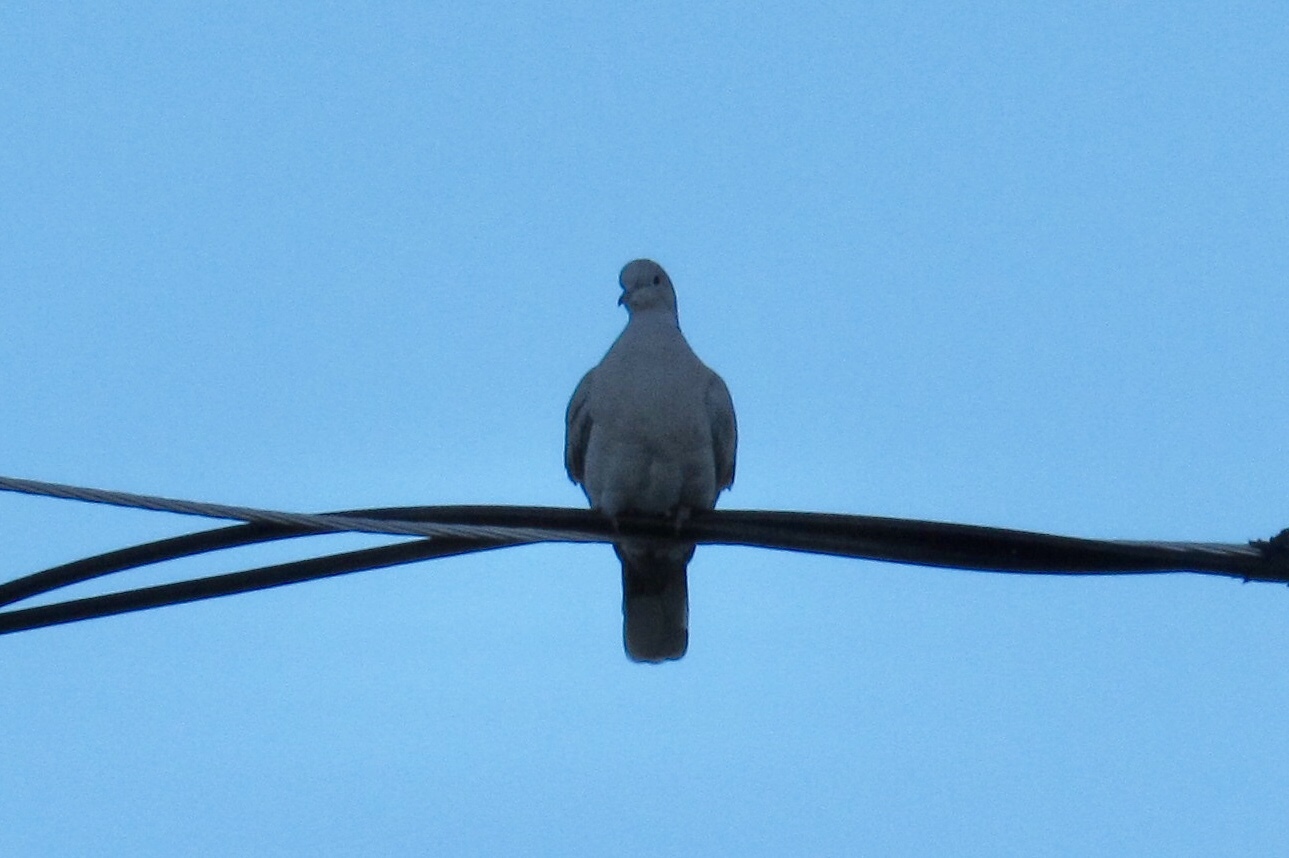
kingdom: Animalia
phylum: Chordata
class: Aves
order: Columbiformes
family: Columbidae
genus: Streptopelia
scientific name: Streptopelia decaocto
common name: Eurasian collared dove
